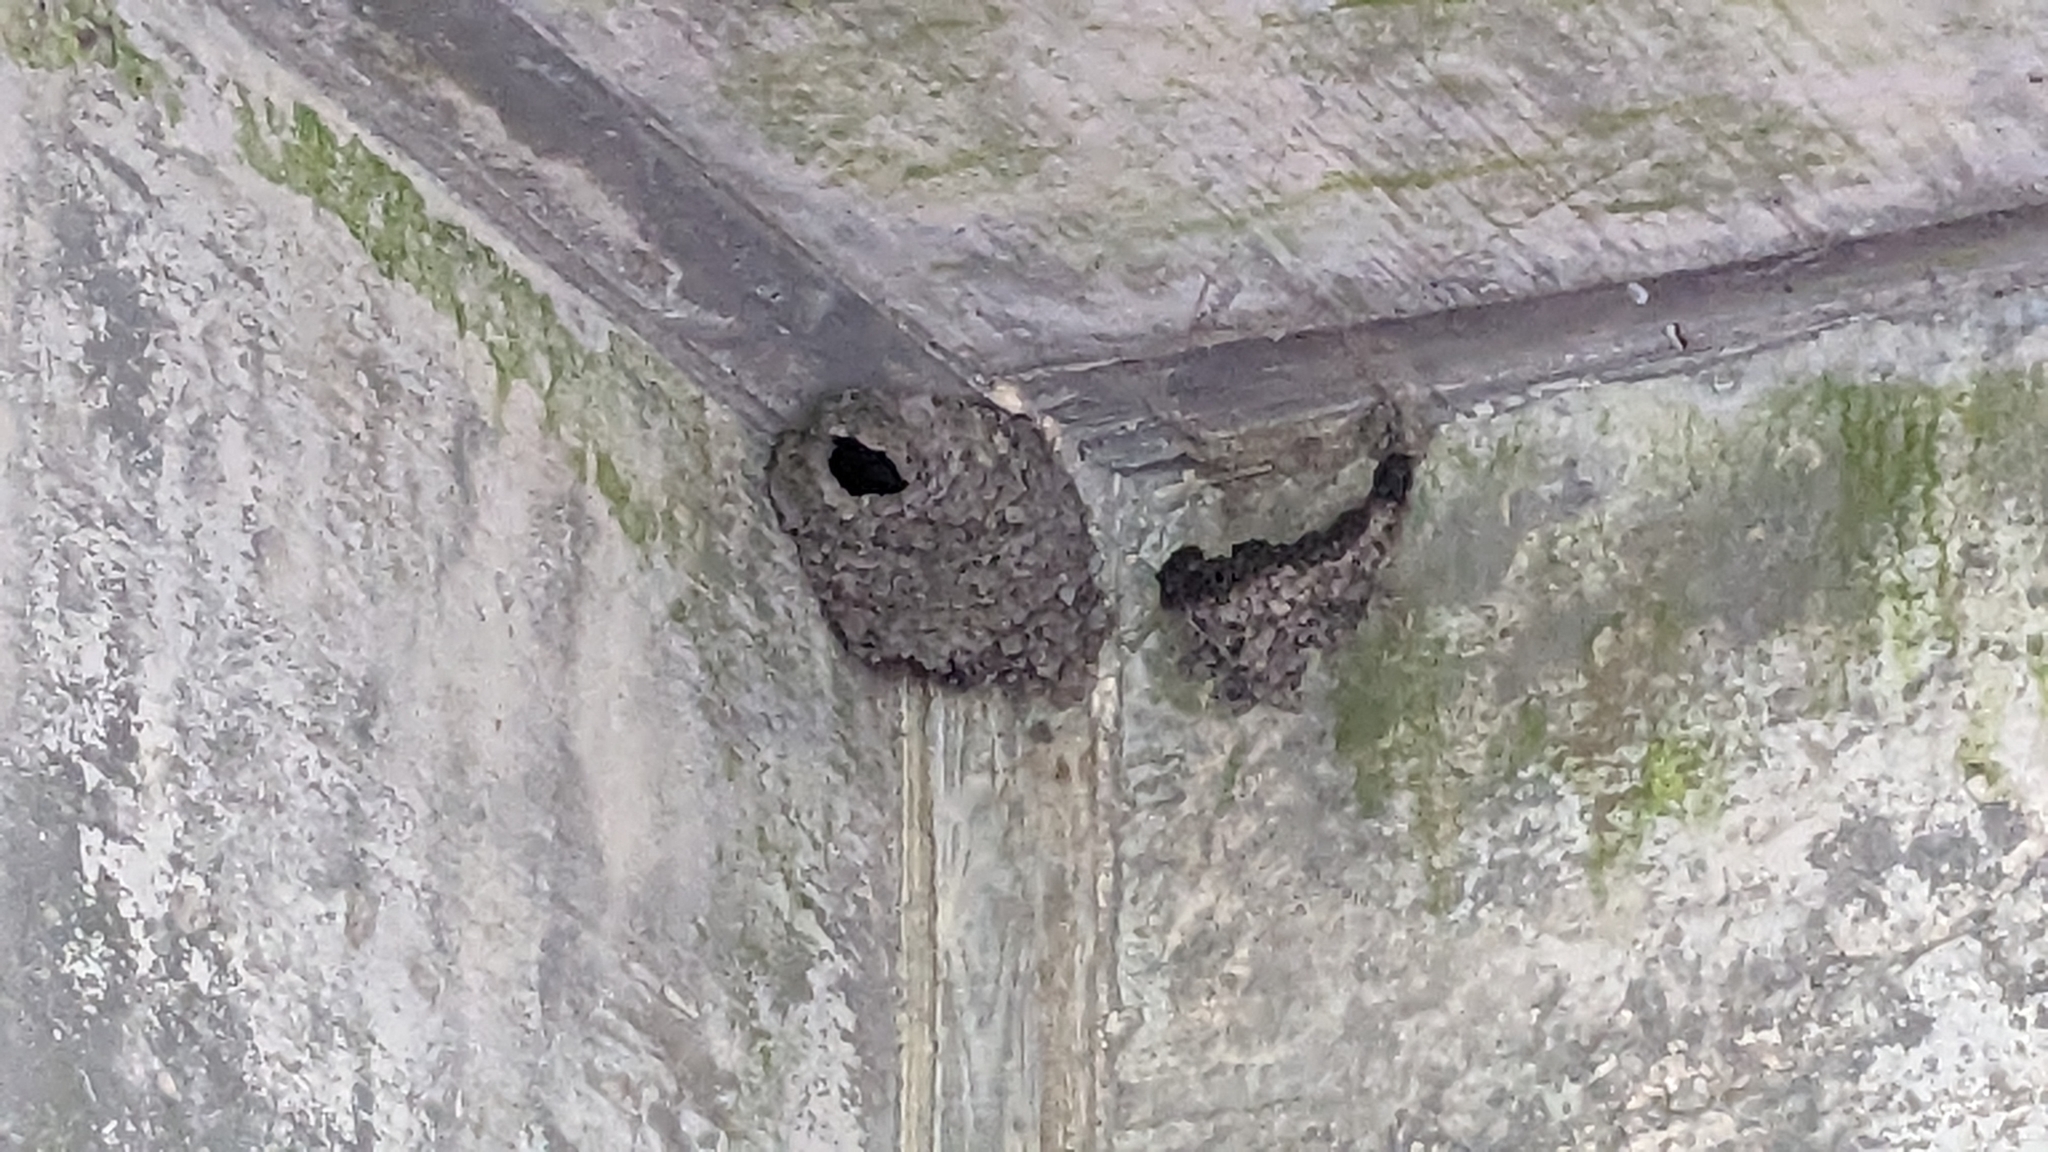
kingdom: Animalia
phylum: Chordata
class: Aves
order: Passeriformes
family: Hirundinidae
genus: Petrochelidon
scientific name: Petrochelidon pyrrhonota
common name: American cliff swallow
